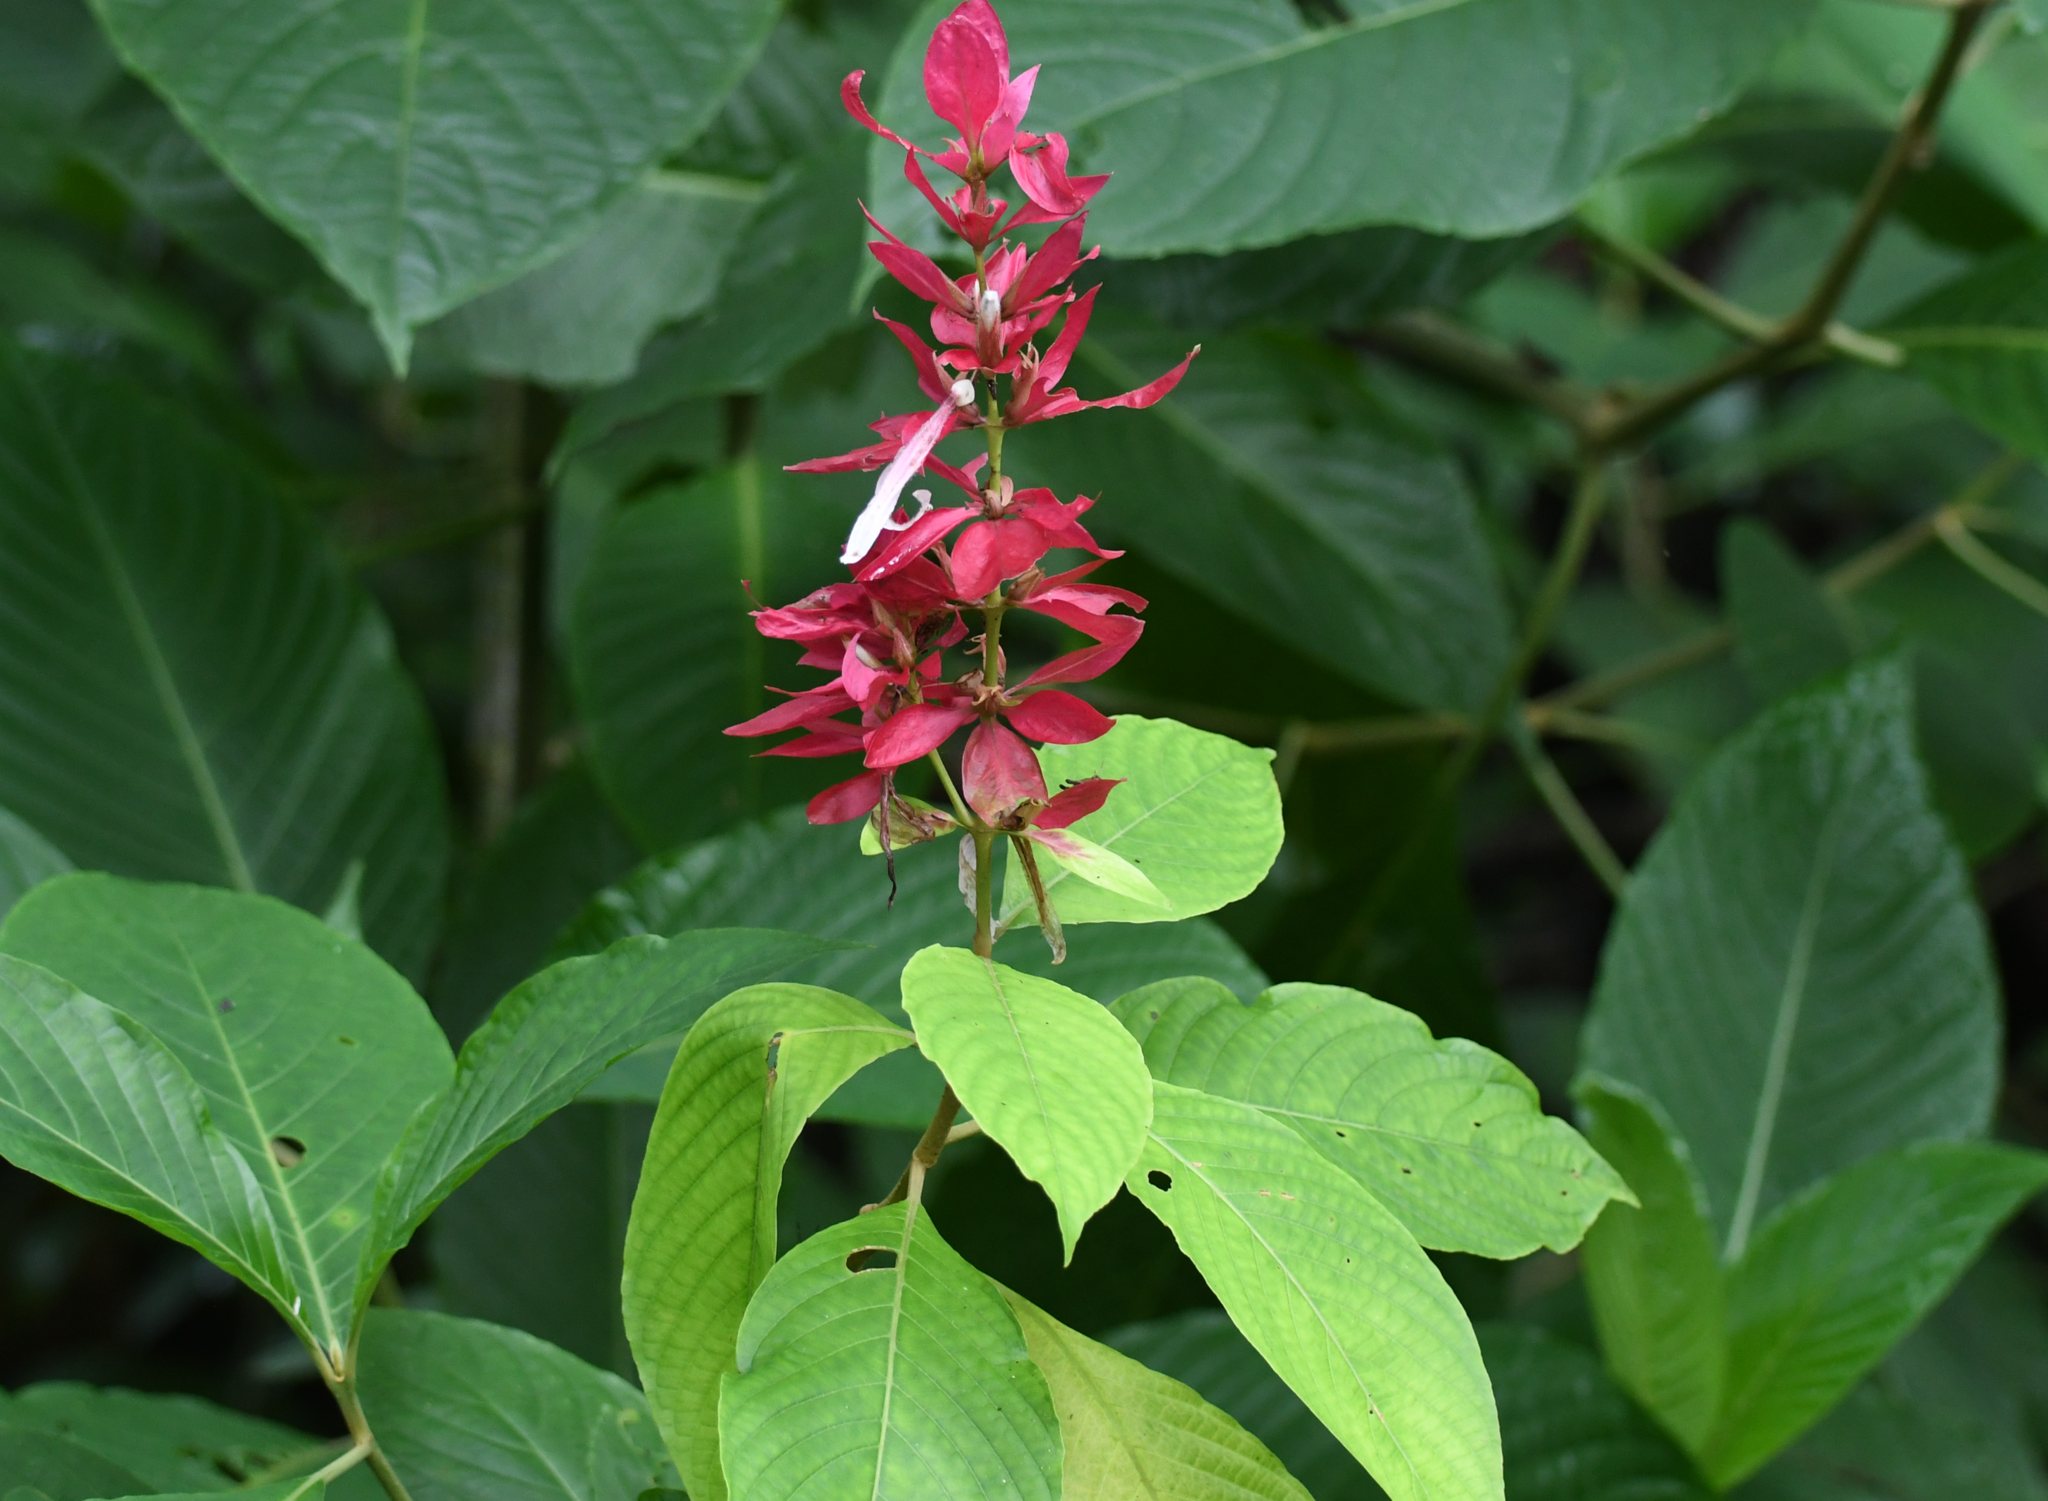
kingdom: Plantae
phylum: Tracheophyta
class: Magnoliopsida
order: Lamiales
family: Acanthaceae
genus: Megaskepasma
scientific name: Megaskepasma erythrochlamys
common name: Brazilian red-cloak
